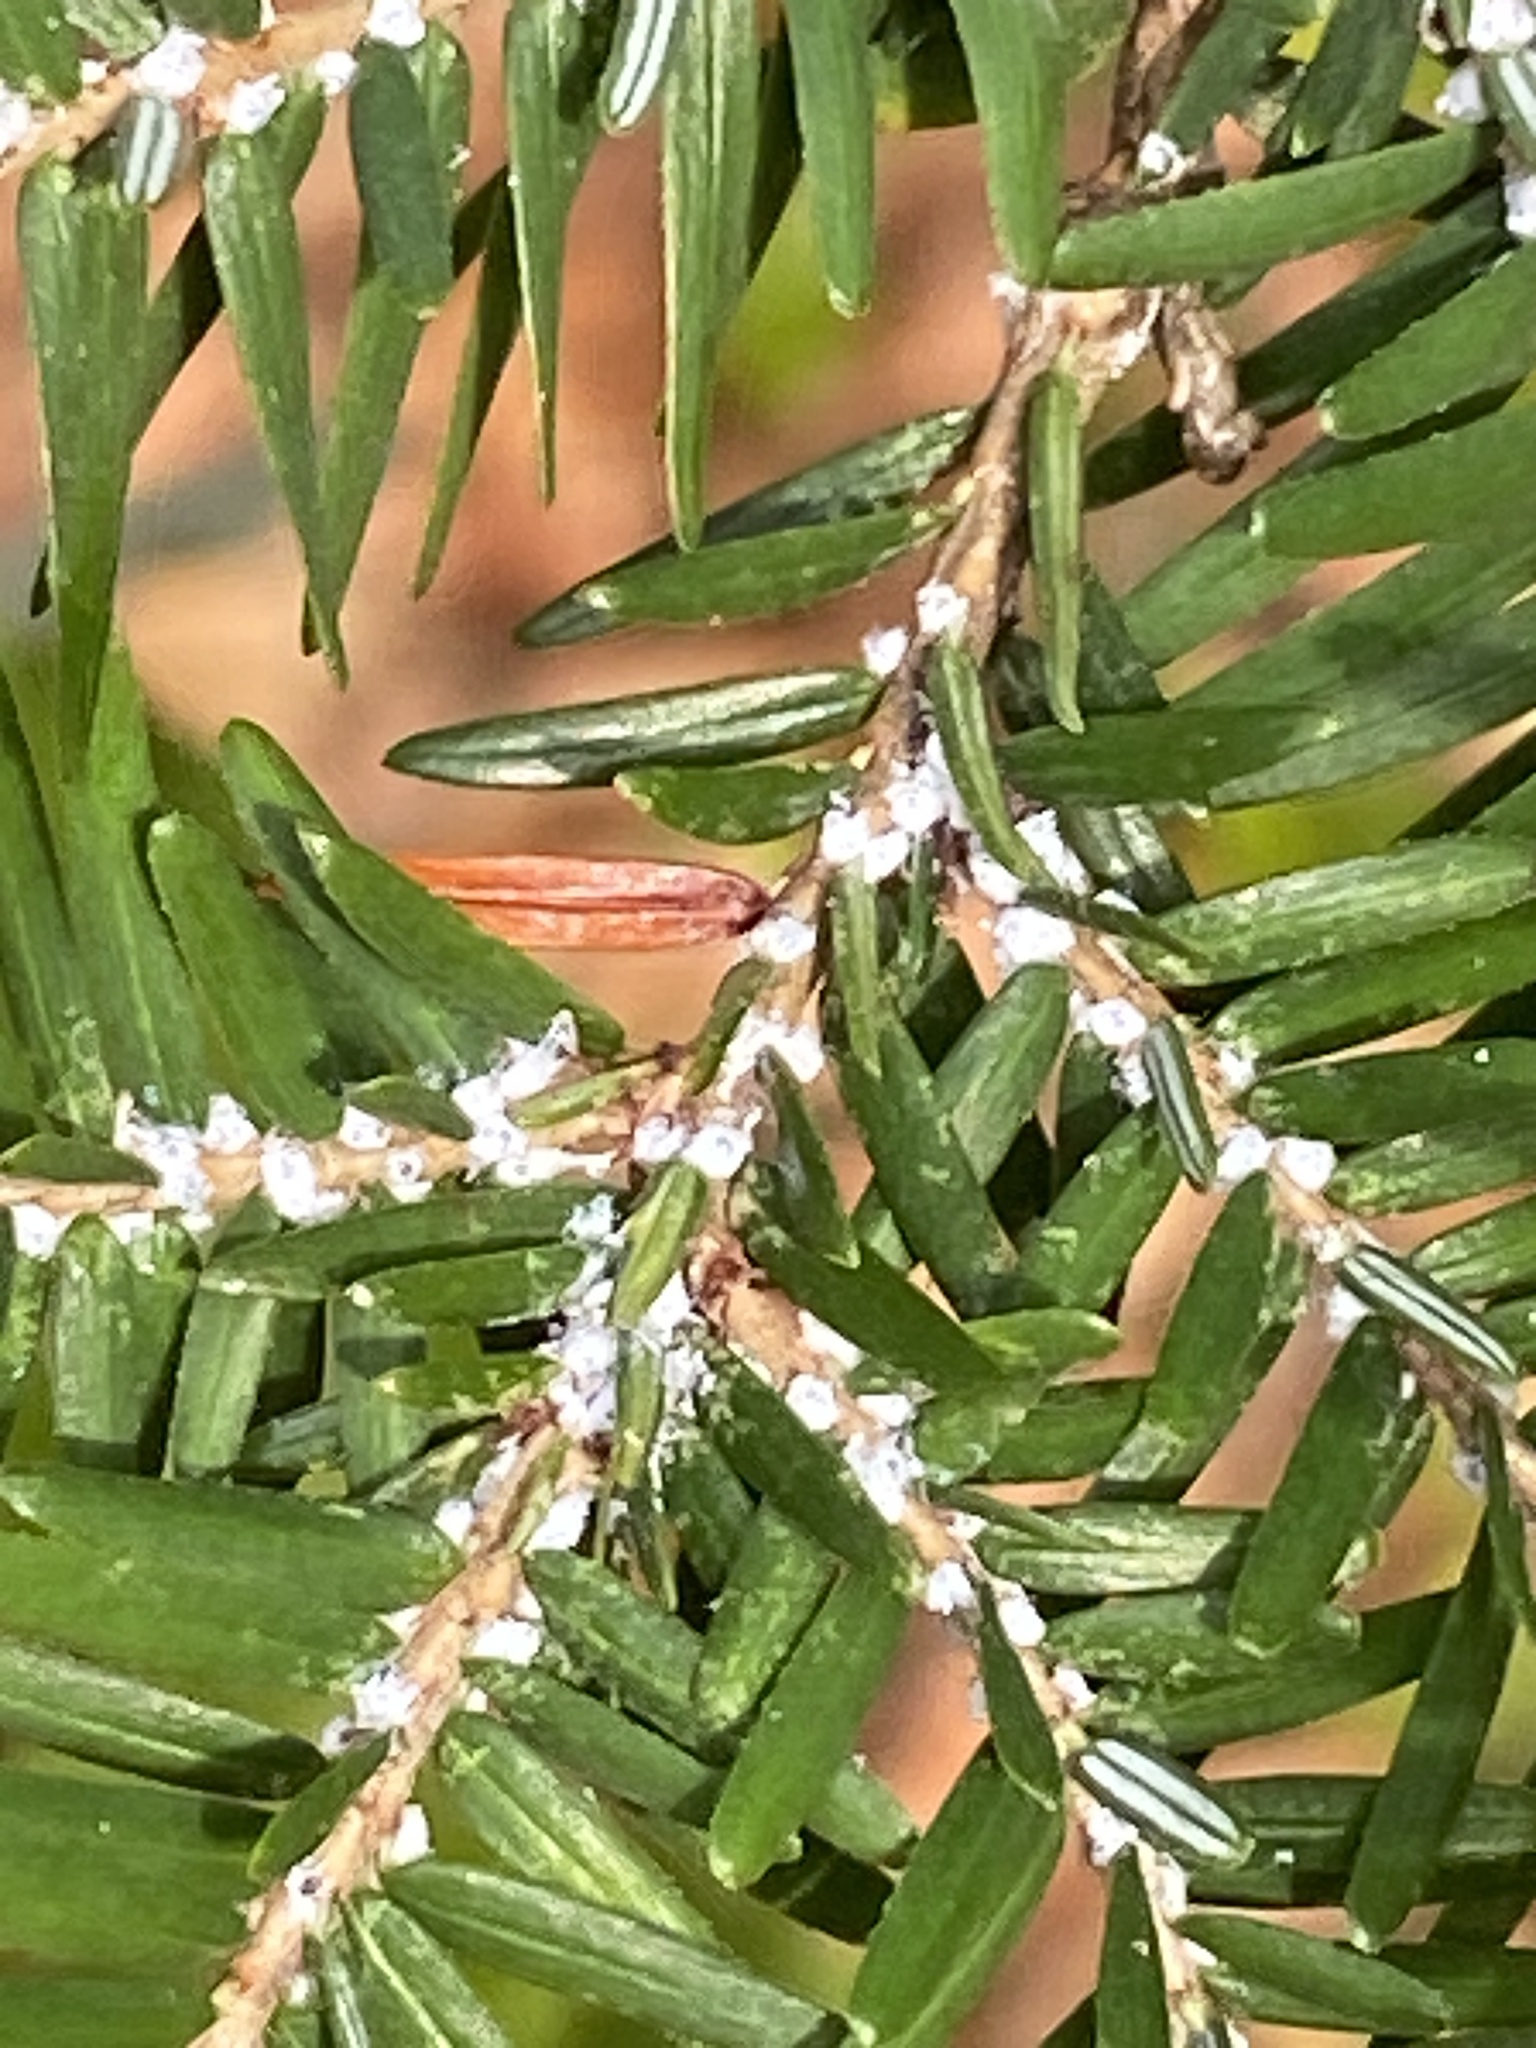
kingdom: Animalia
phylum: Arthropoda
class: Insecta
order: Hemiptera
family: Adelgidae
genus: Adelges
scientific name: Adelges tsugae
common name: Hemlock woolly adelgid
